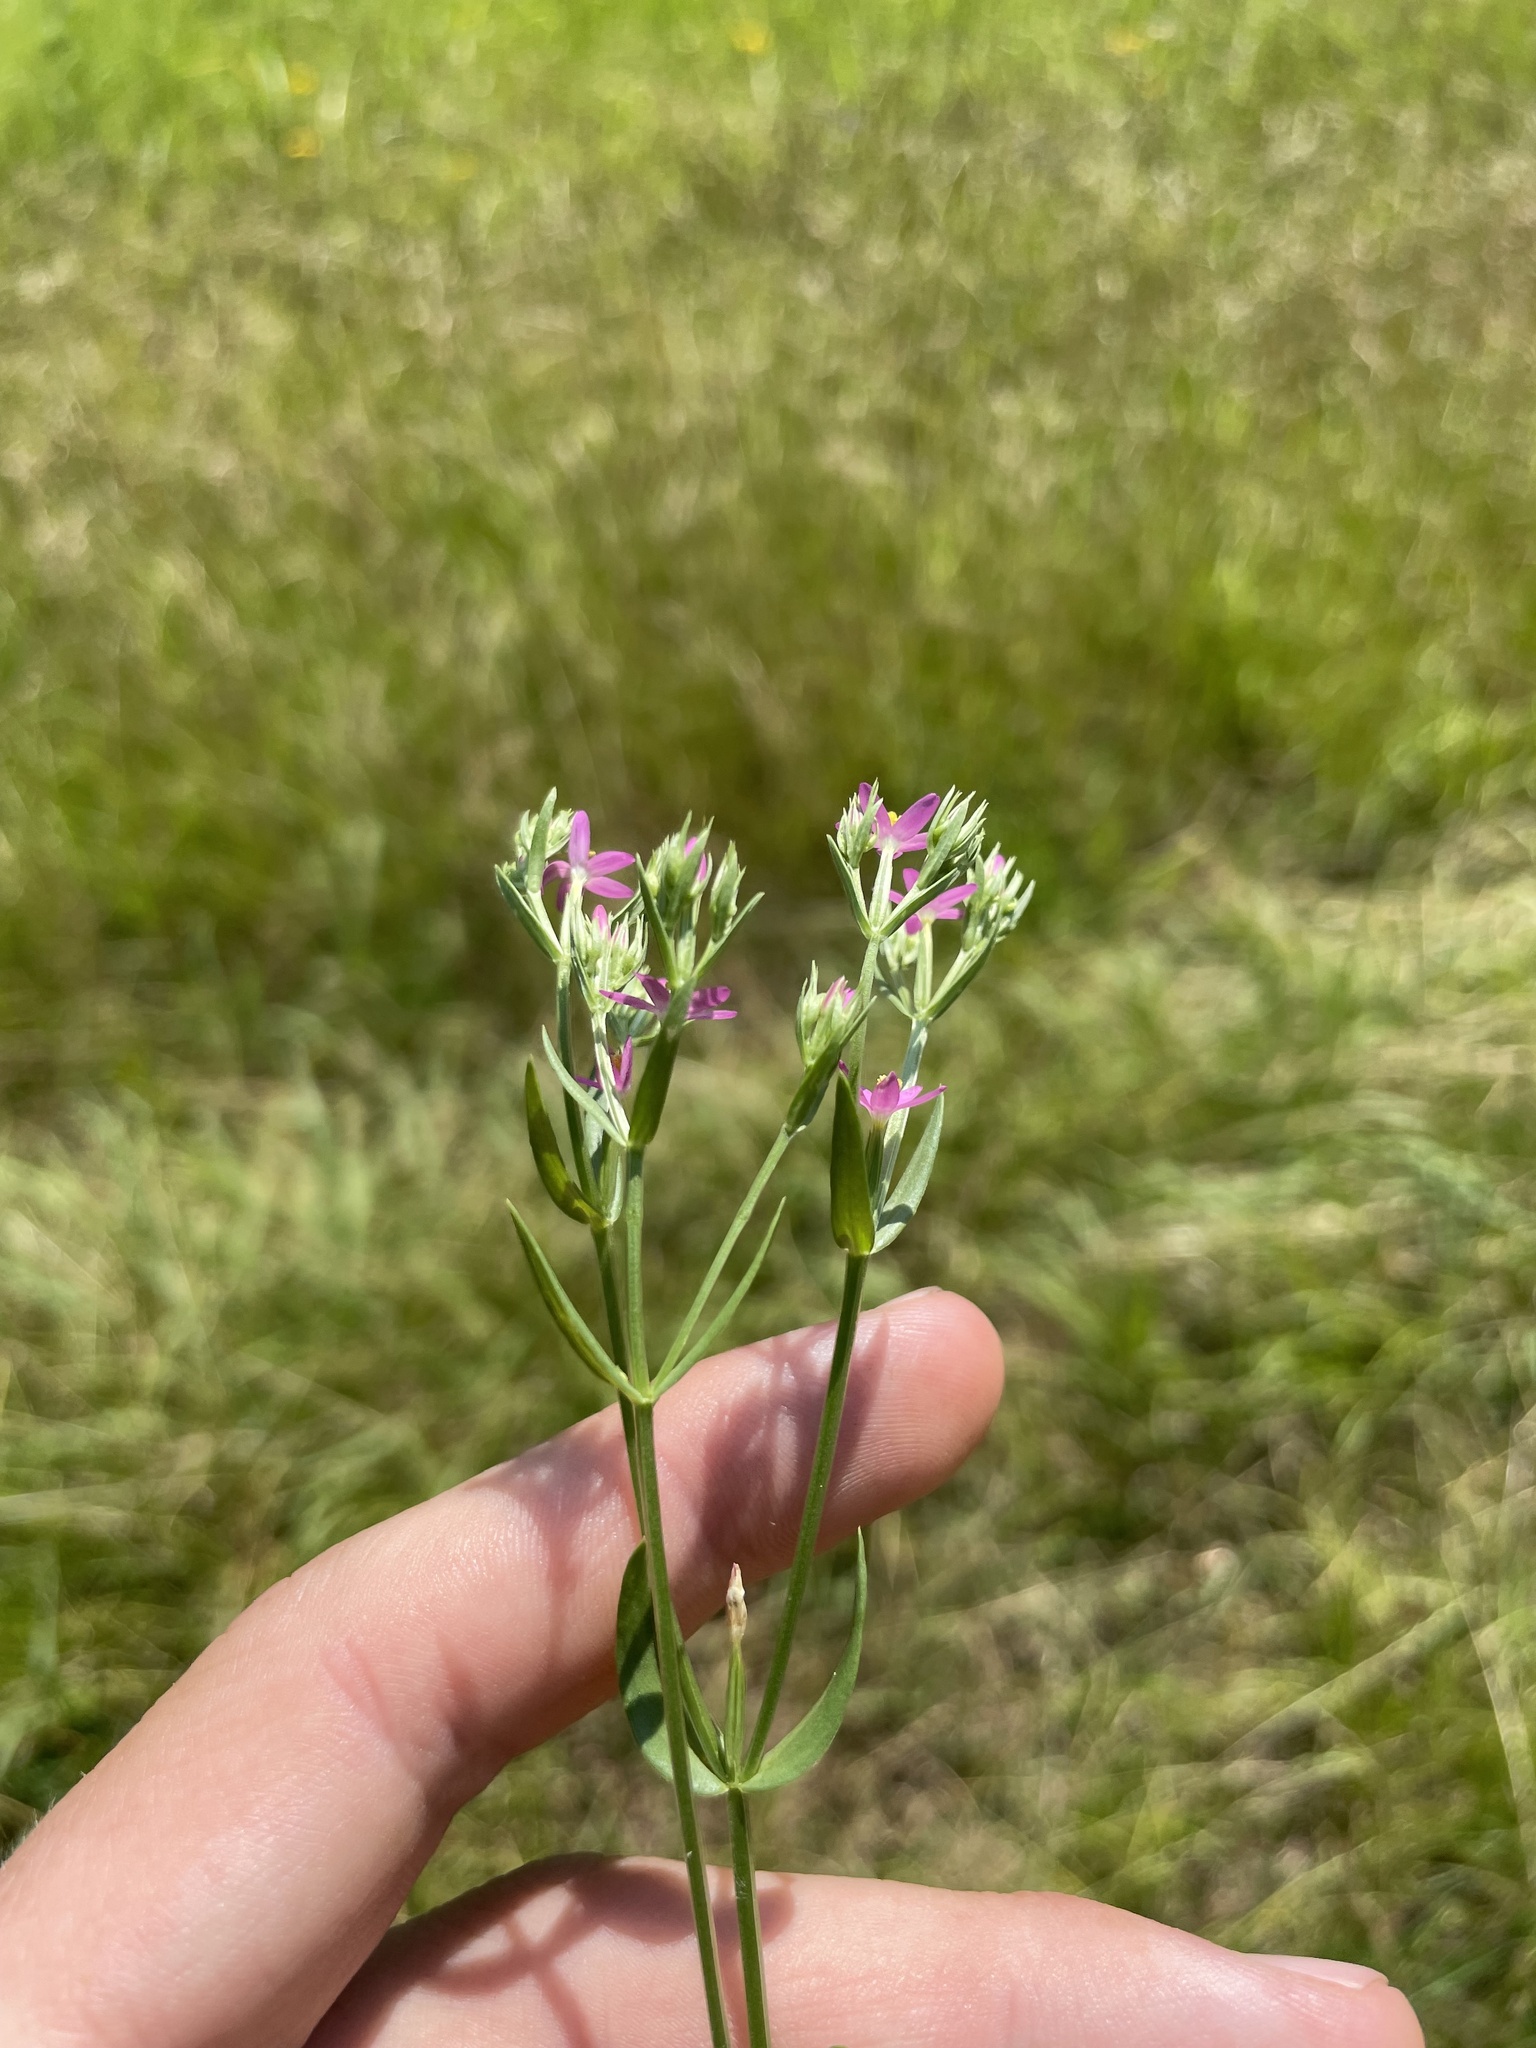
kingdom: Plantae
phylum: Tracheophyta
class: Magnoliopsida
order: Gentianales
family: Gentianaceae
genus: Centaurium
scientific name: Centaurium tenuiflorum
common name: Slender centaury
